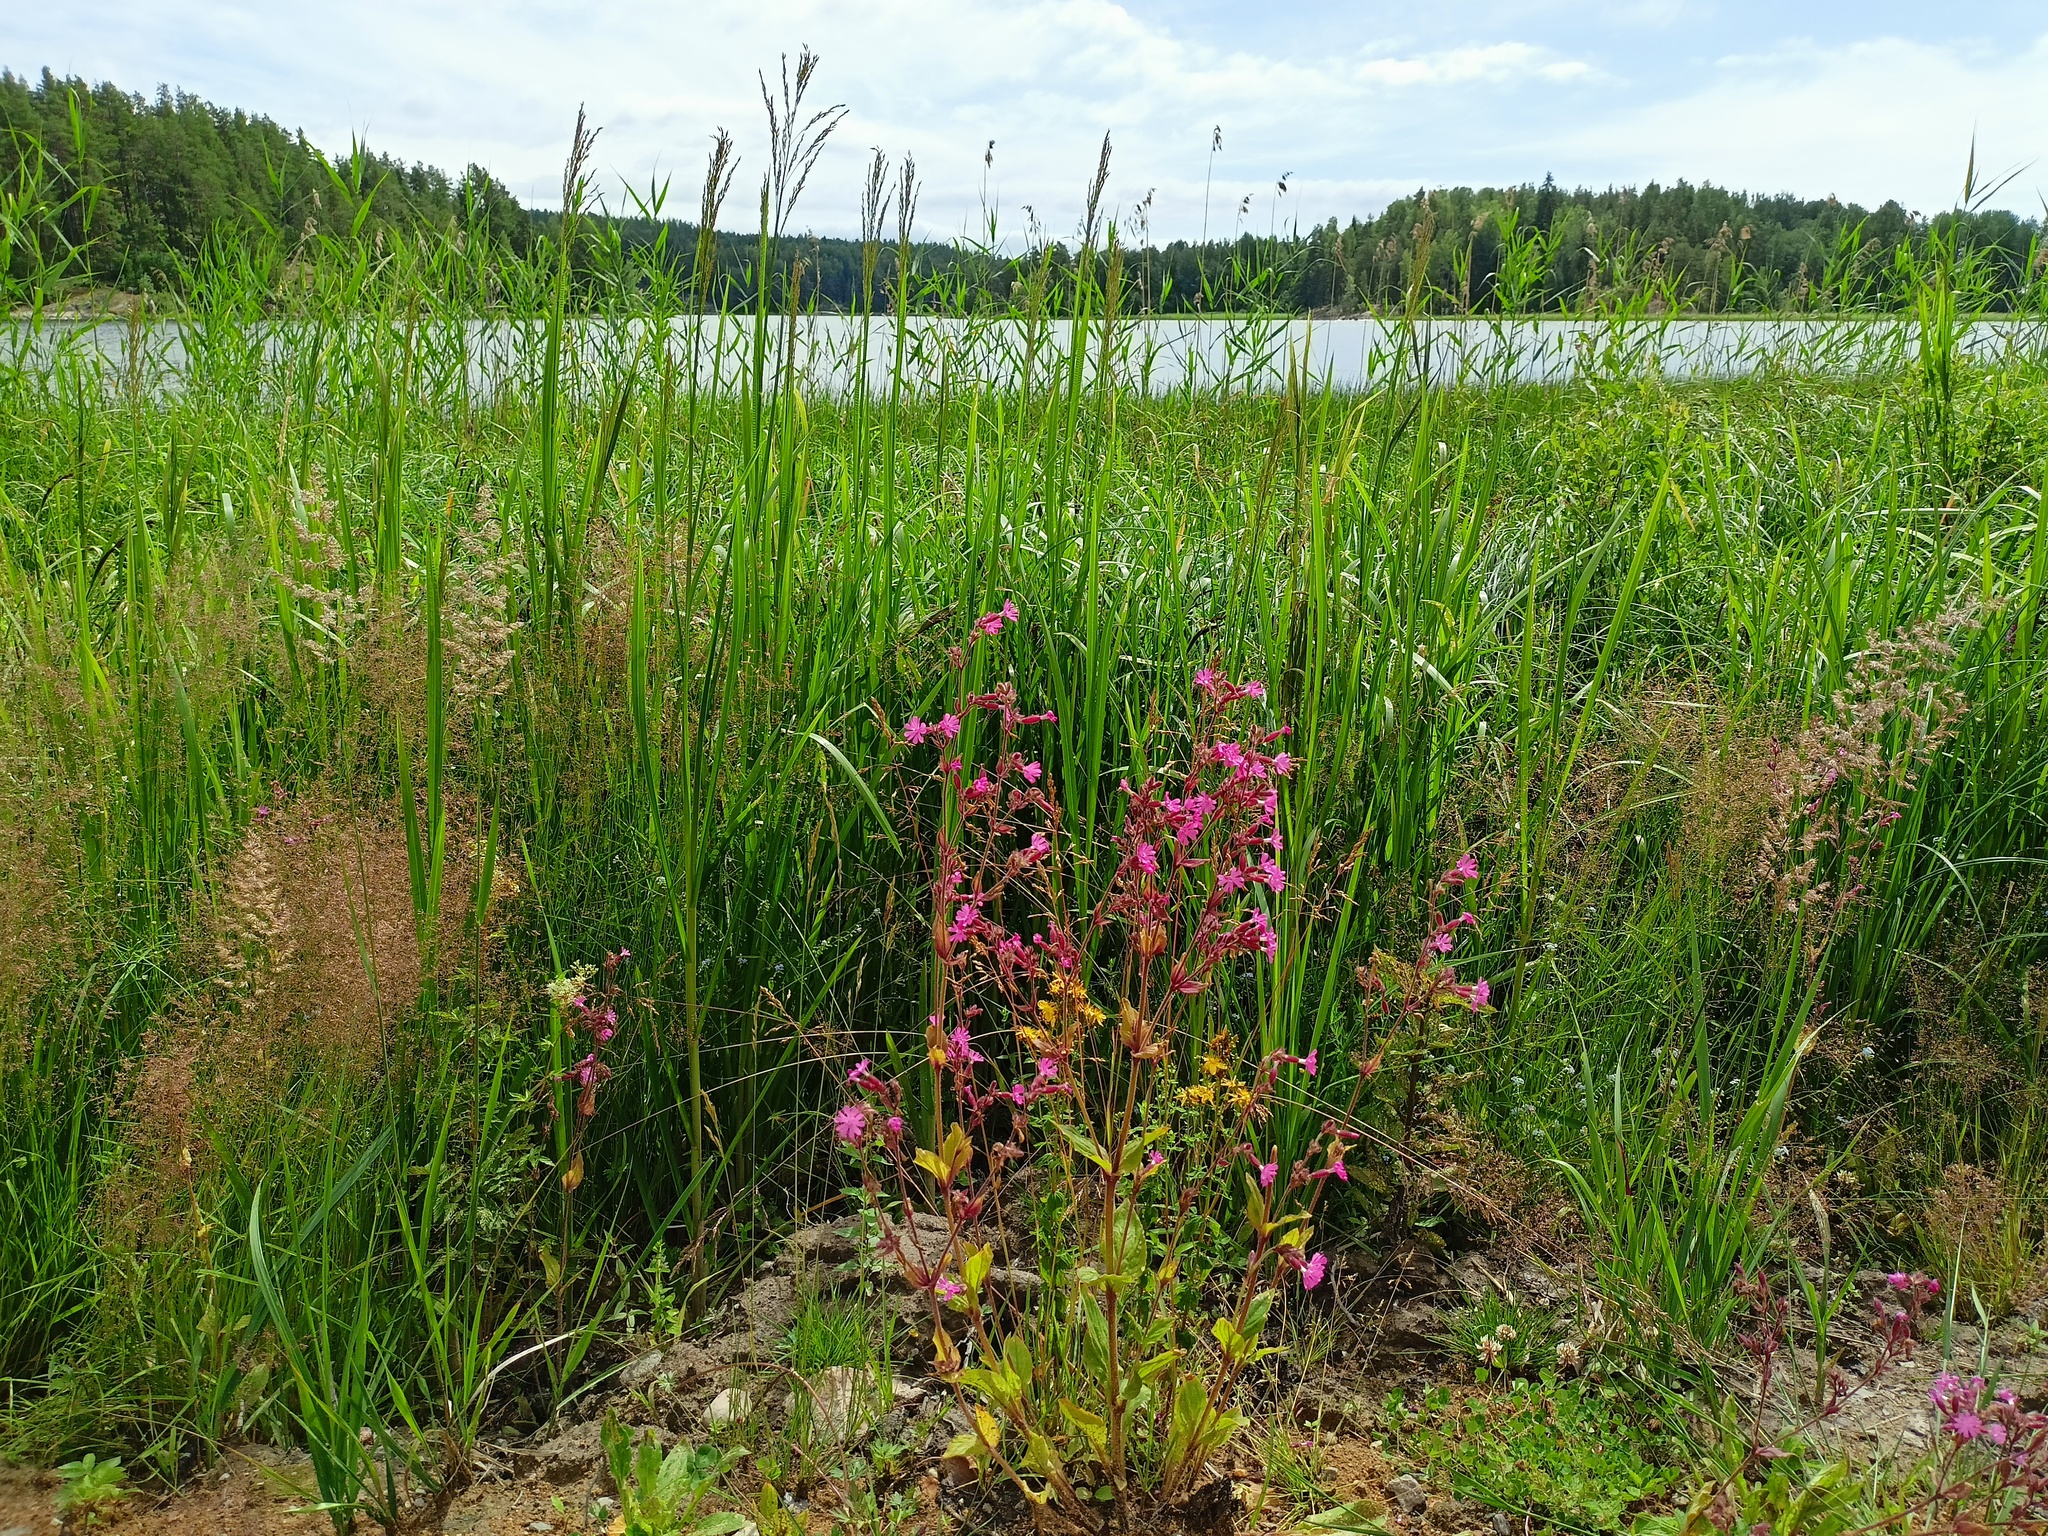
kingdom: Plantae
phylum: Tracheophyta
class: Magnoliopsida
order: Caryophyllales
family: Caryophyllaceae
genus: Silene
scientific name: Silene dioica
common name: Red campion
